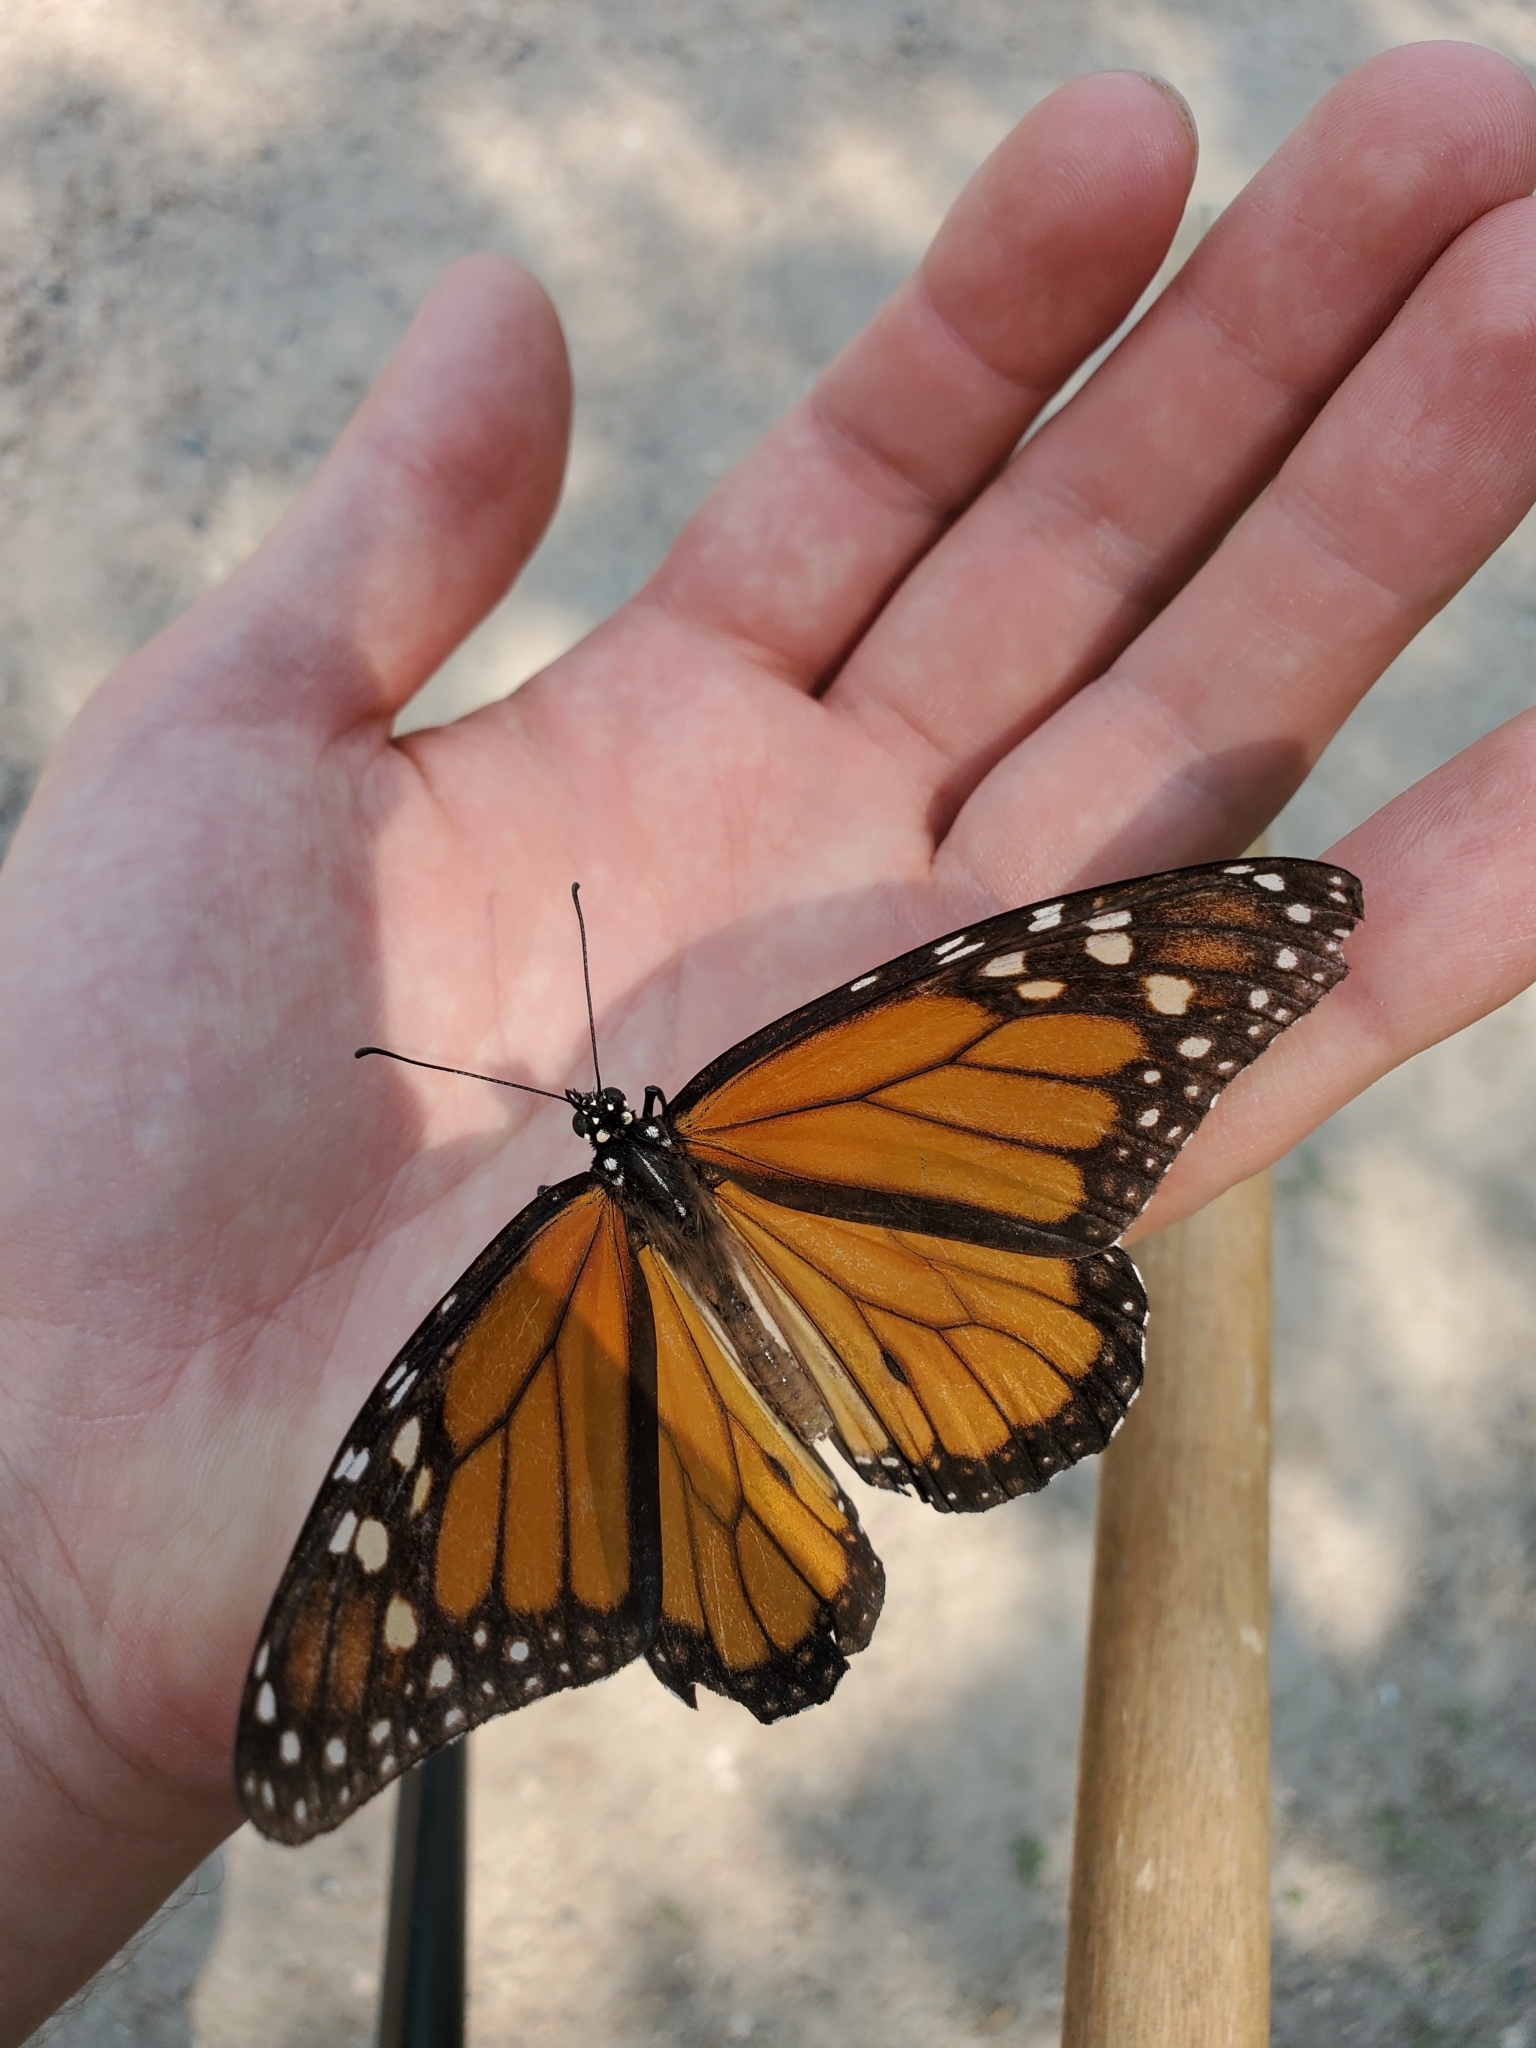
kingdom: Animalia
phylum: Arthropoda
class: Insecta
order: Lepidoptera
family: Nymphalidae
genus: Danaus
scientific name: Danaus plexippus
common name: Monarch
